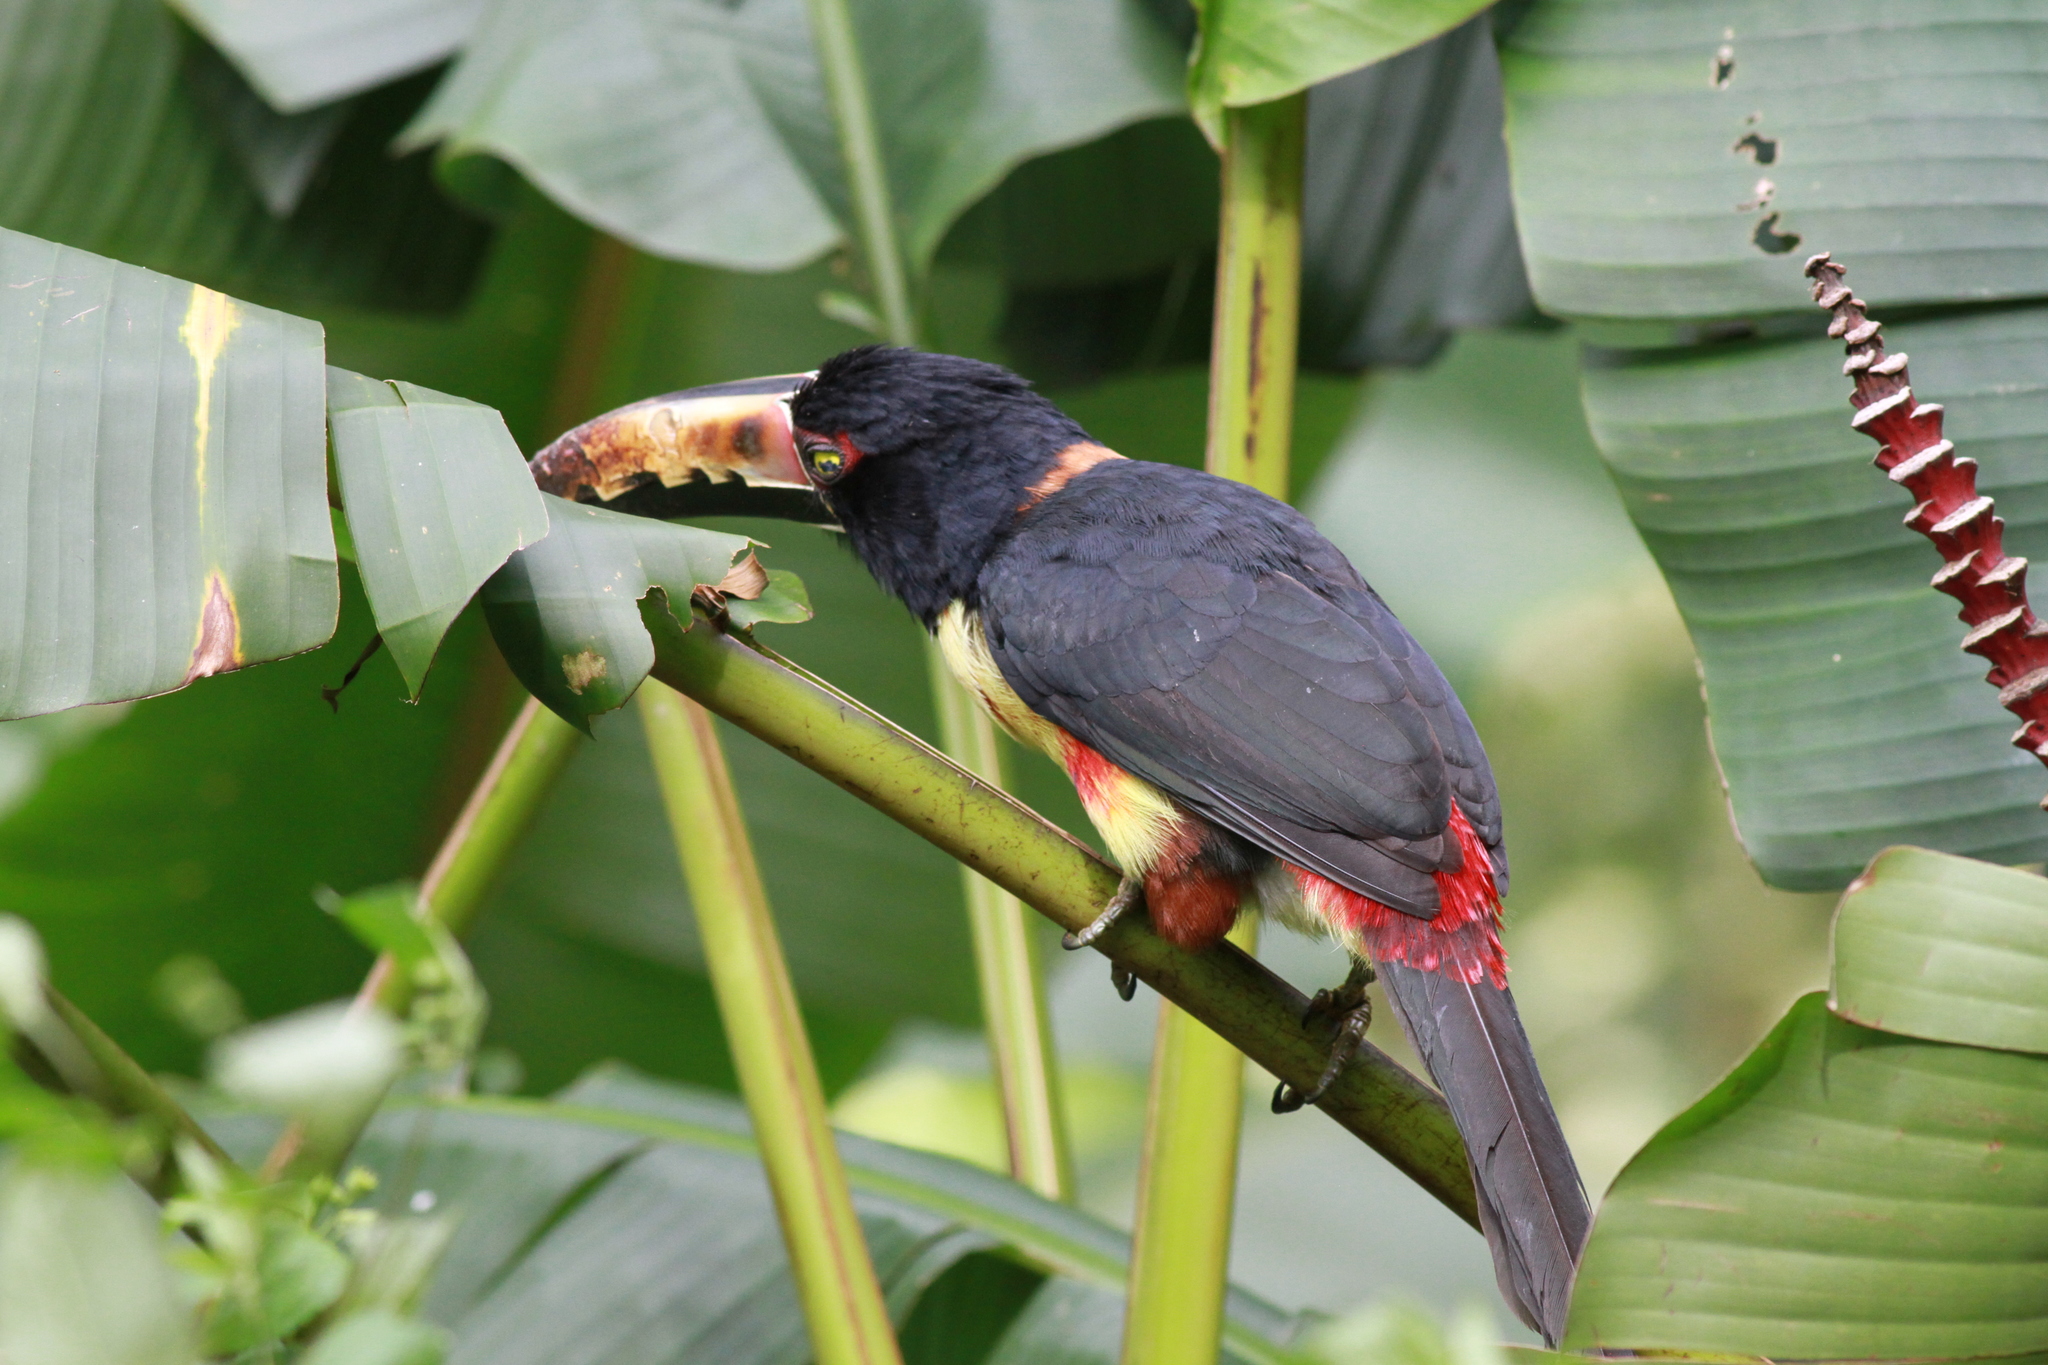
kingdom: Animalia
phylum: Chordata
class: Aves
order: Piciformes
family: Ramphastidae
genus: Pteroglossus
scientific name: Pteroglossus torquatus
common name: Collared aracari
